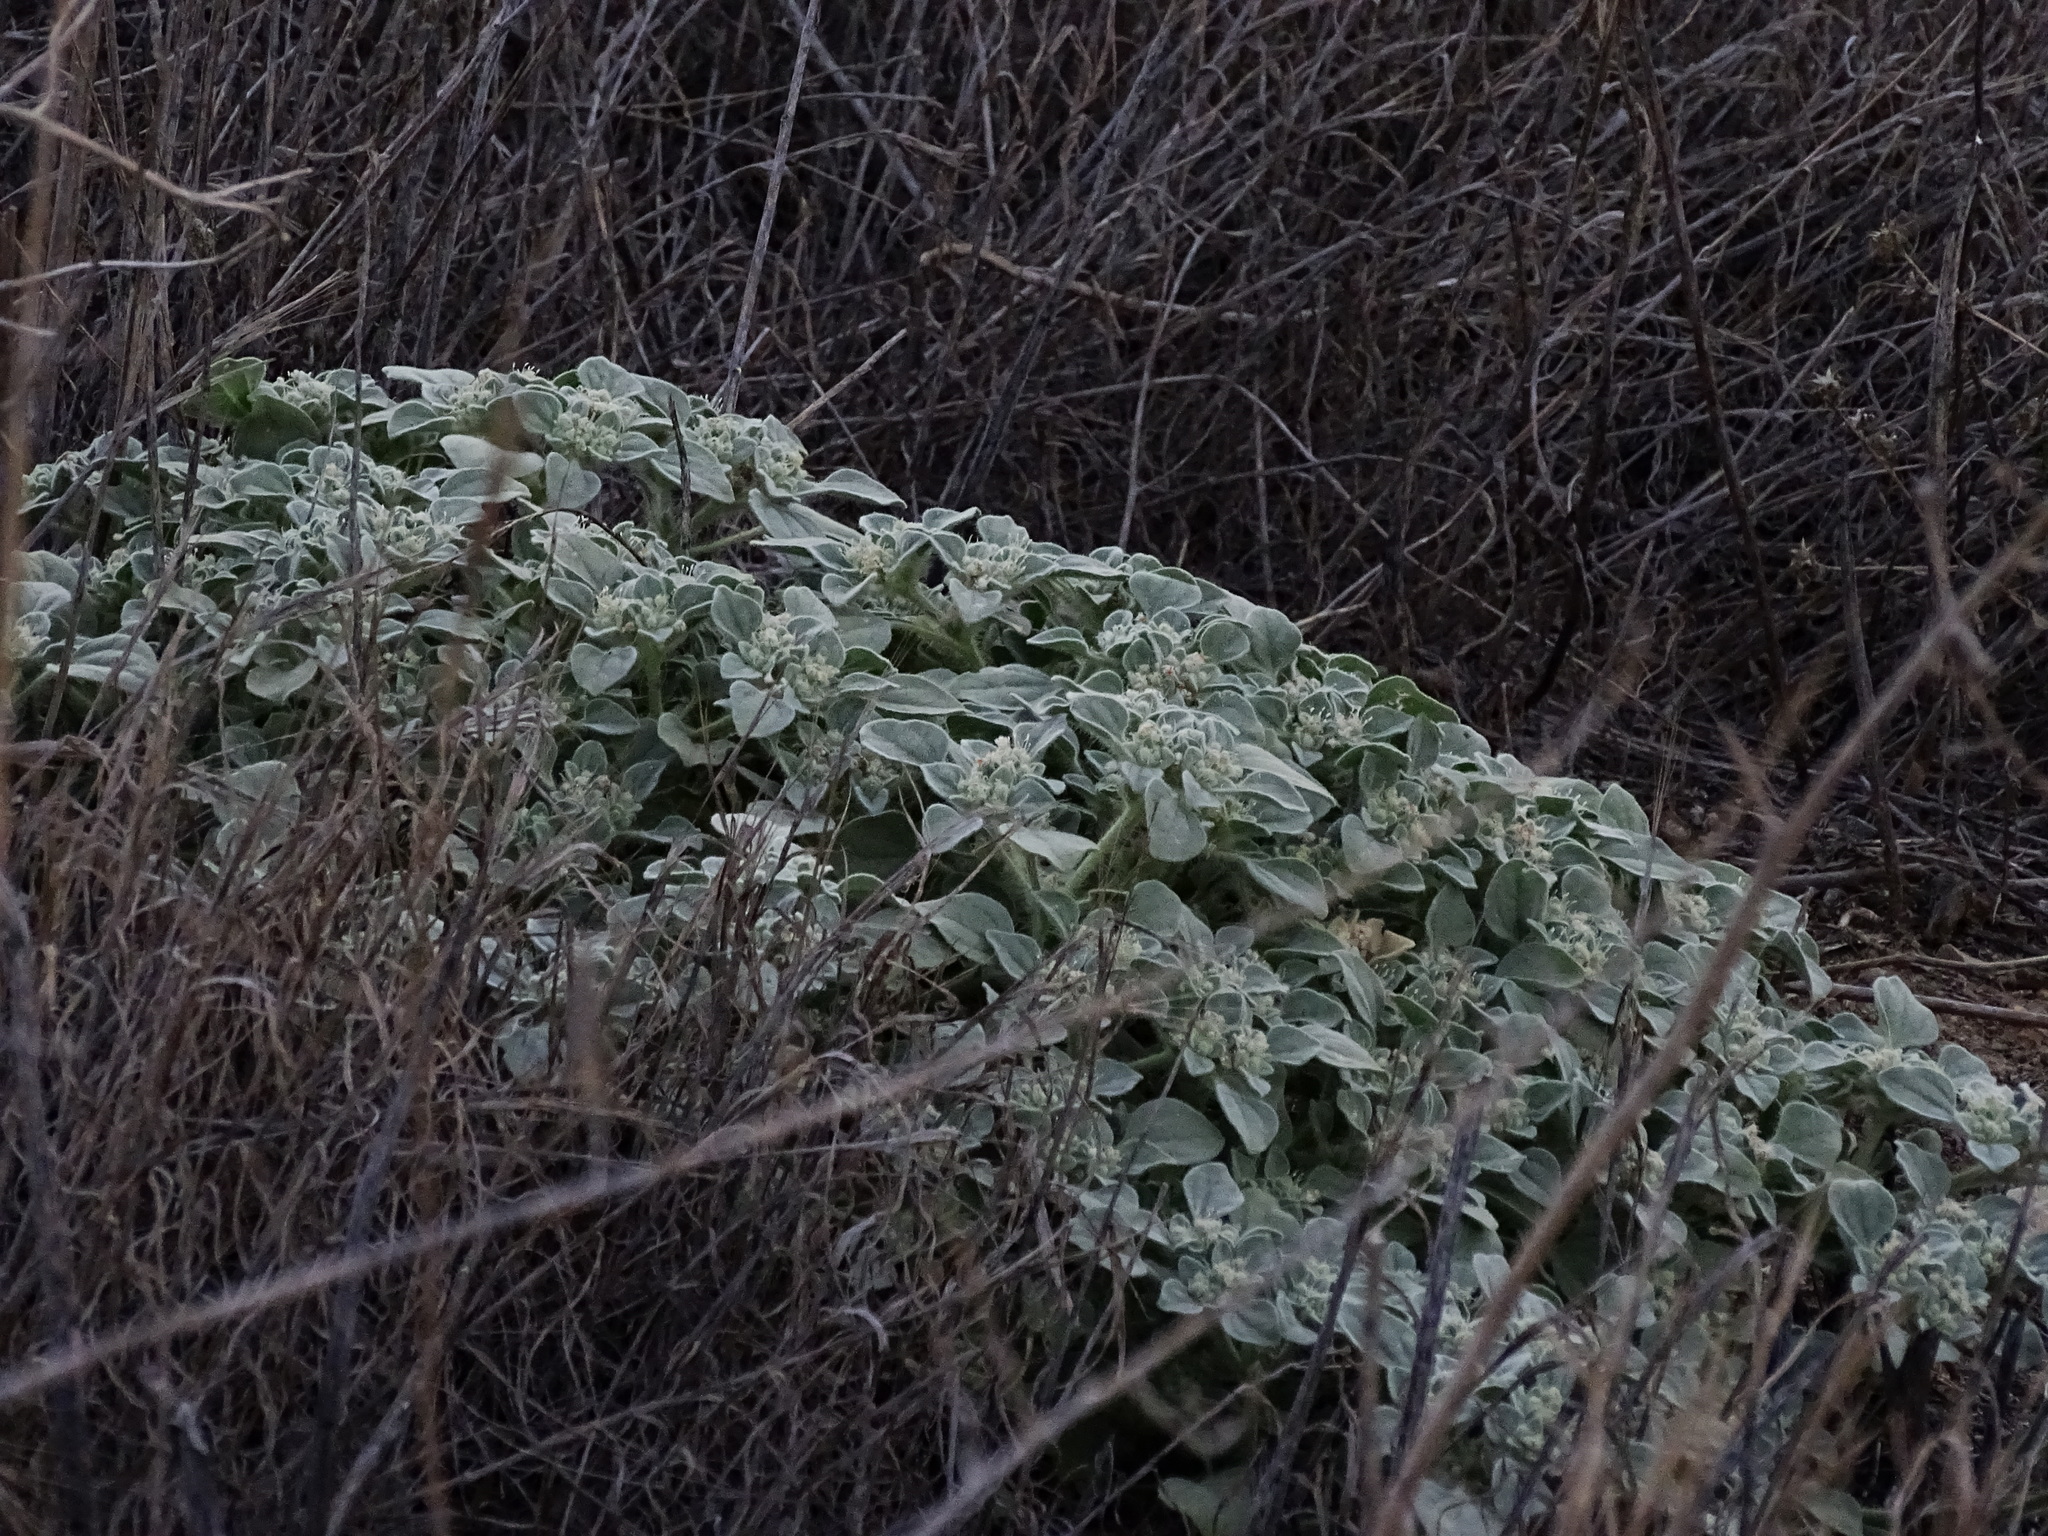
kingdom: Plantae
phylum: Tracheophyta
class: Magnoliopsida
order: Malpighiales
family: Euphorbiaceae
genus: Croton
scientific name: Croton setiger
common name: Dove weed
